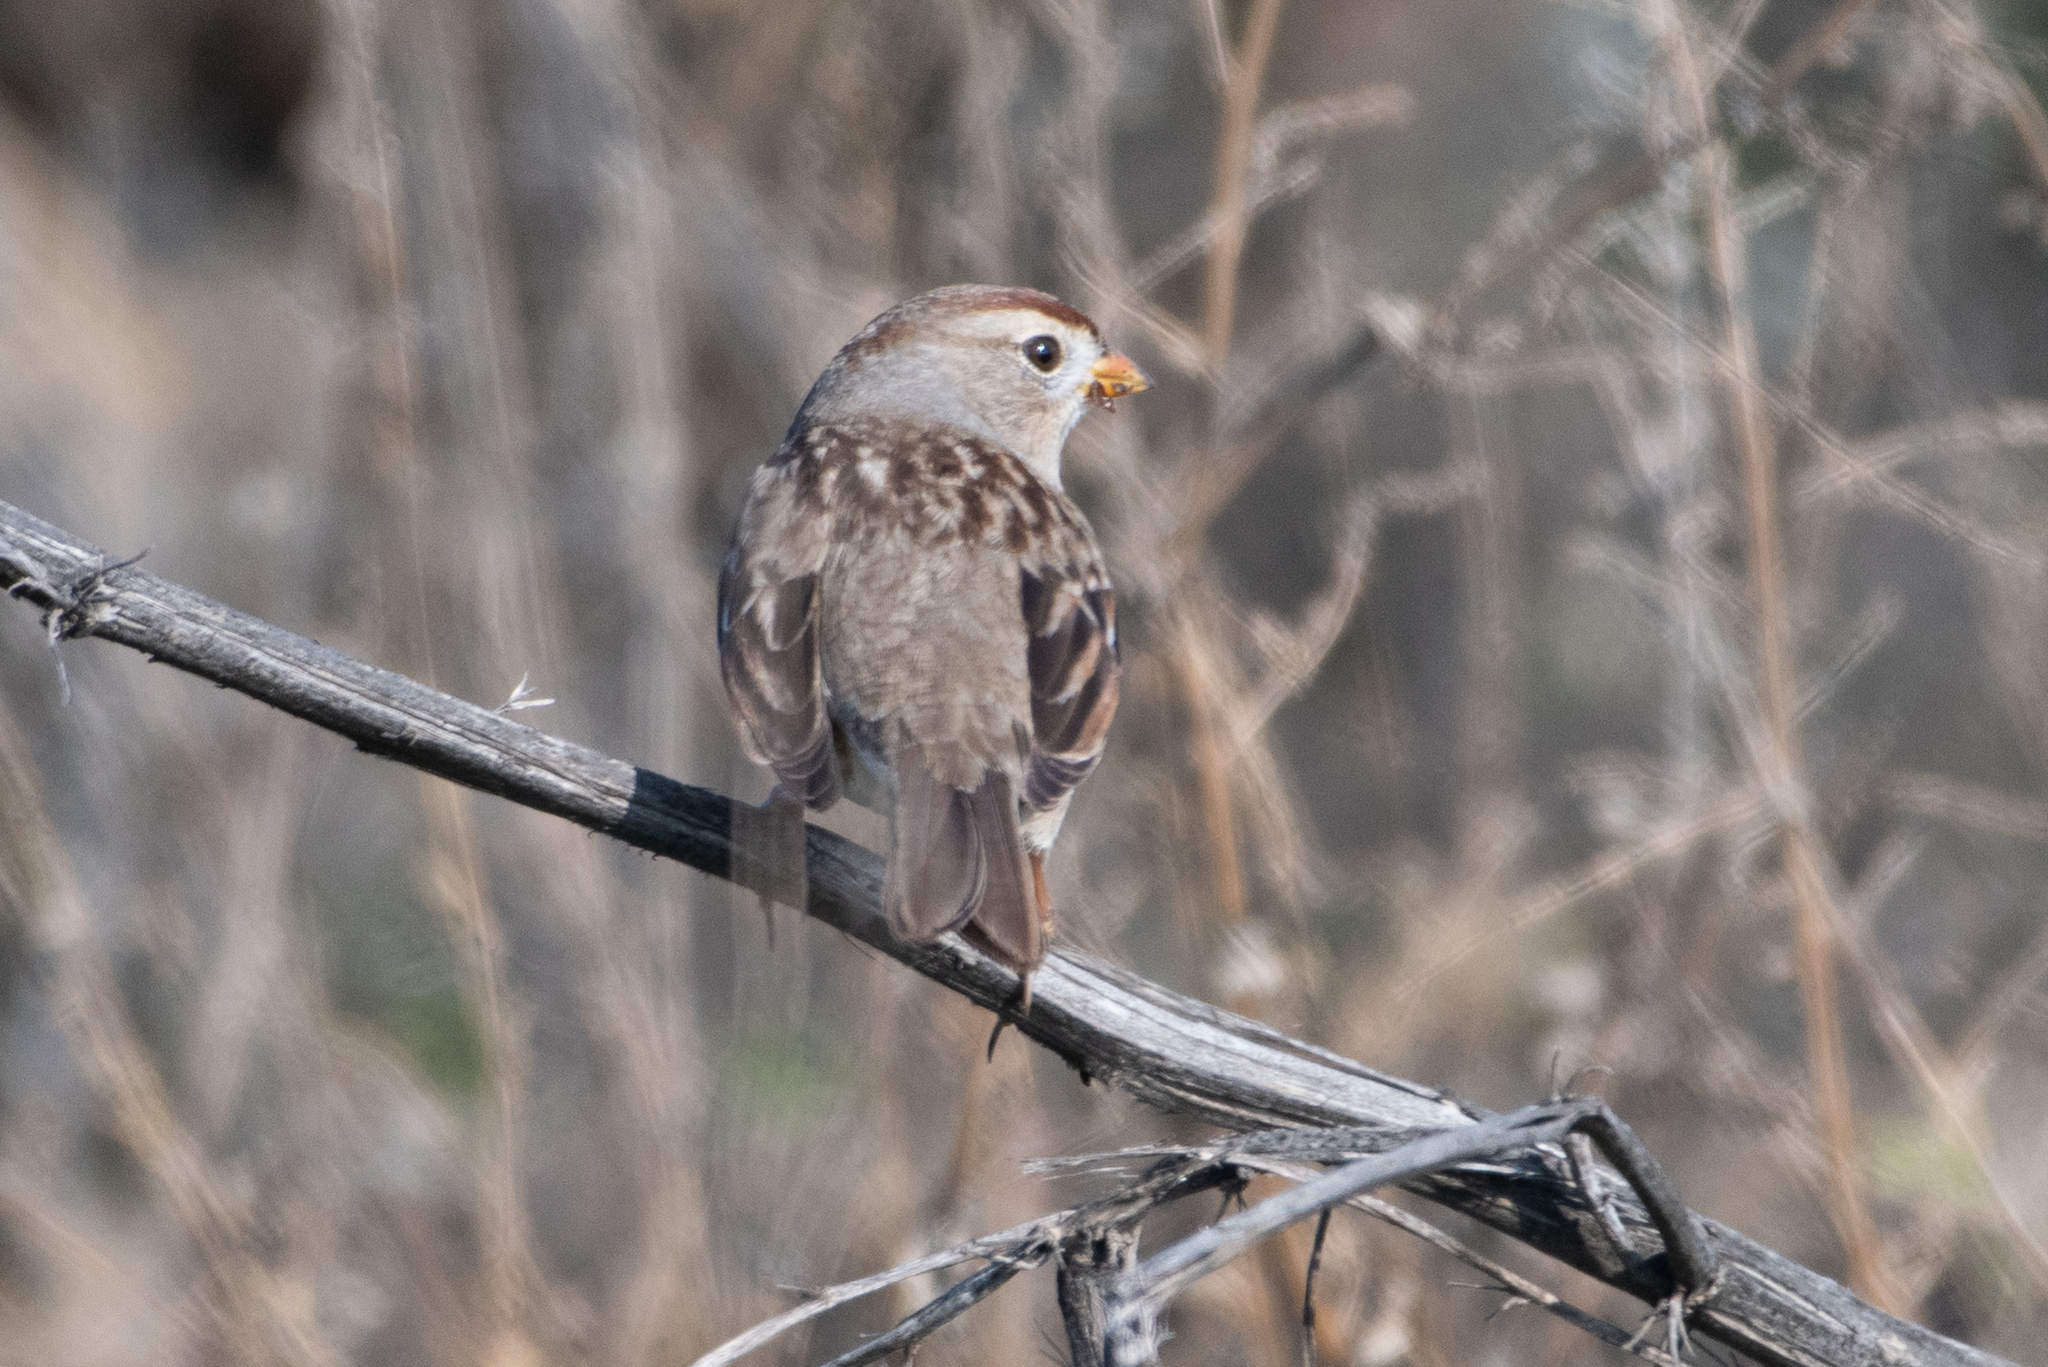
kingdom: Animalia
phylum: Chordata
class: Aves
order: Passeriformes
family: Passerellidae
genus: Zonotrichia
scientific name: Zonotrichia leucophrys
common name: White-crowned sparrow
